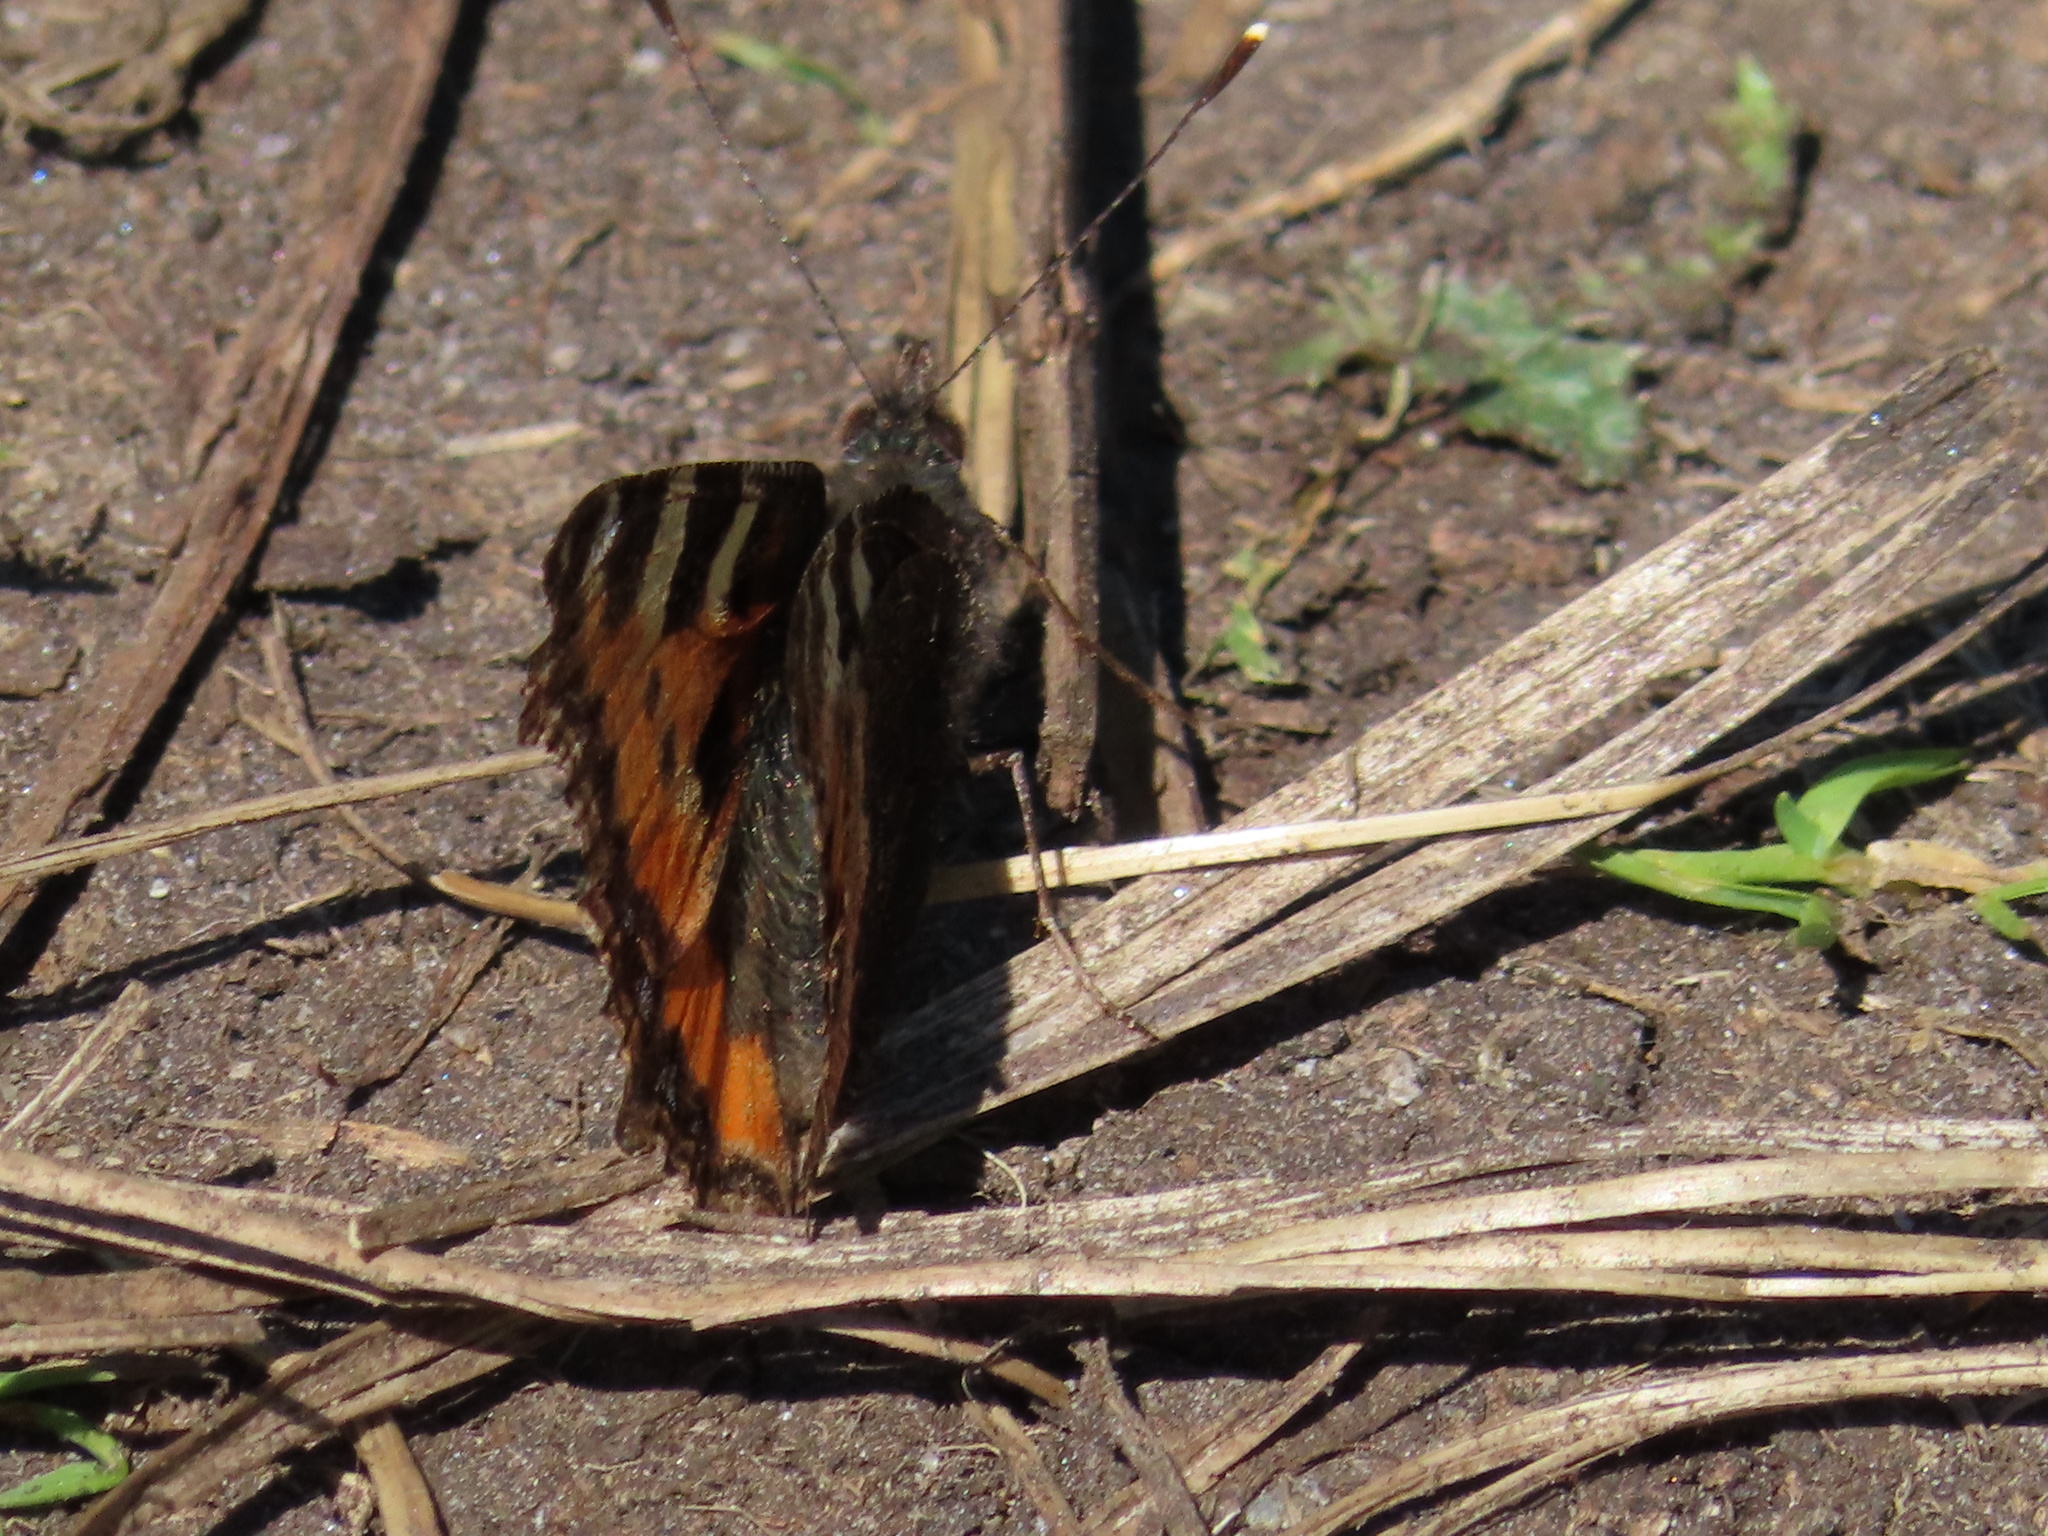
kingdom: Animalia
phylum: Arthropoda
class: Insecta
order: Lepidoptera
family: Nymphalidae
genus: Aglais
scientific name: Aglais urticae
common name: Small tortoiseshell
